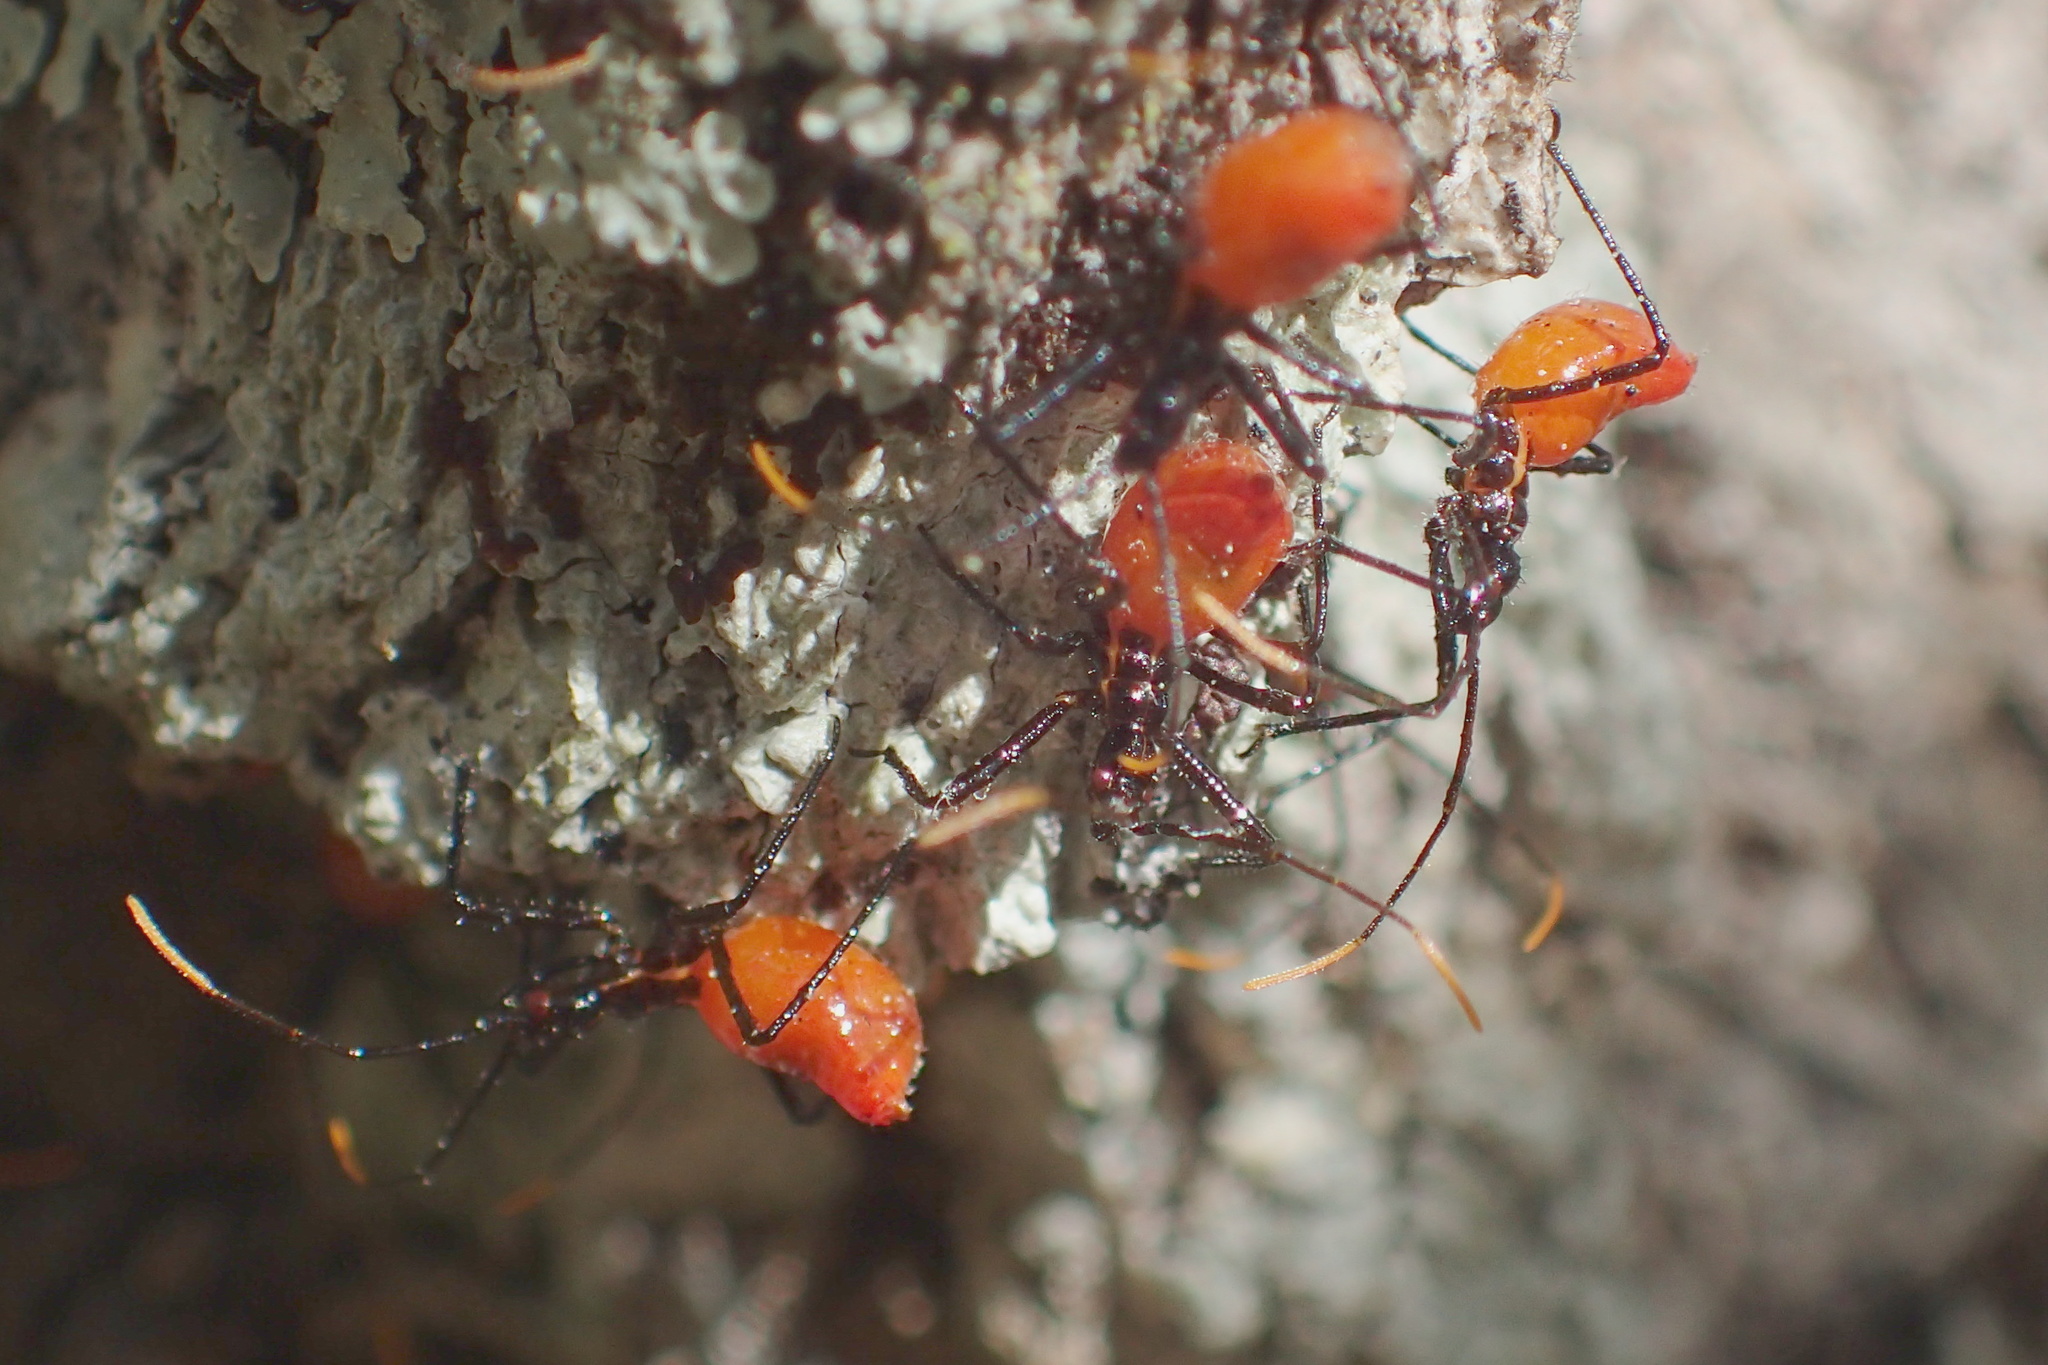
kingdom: Animalia
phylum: Arthropoda
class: Insecta
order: Hemiptera
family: Reduviidae
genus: Arilus
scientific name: Arilus cristatus
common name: North american wheel bug
